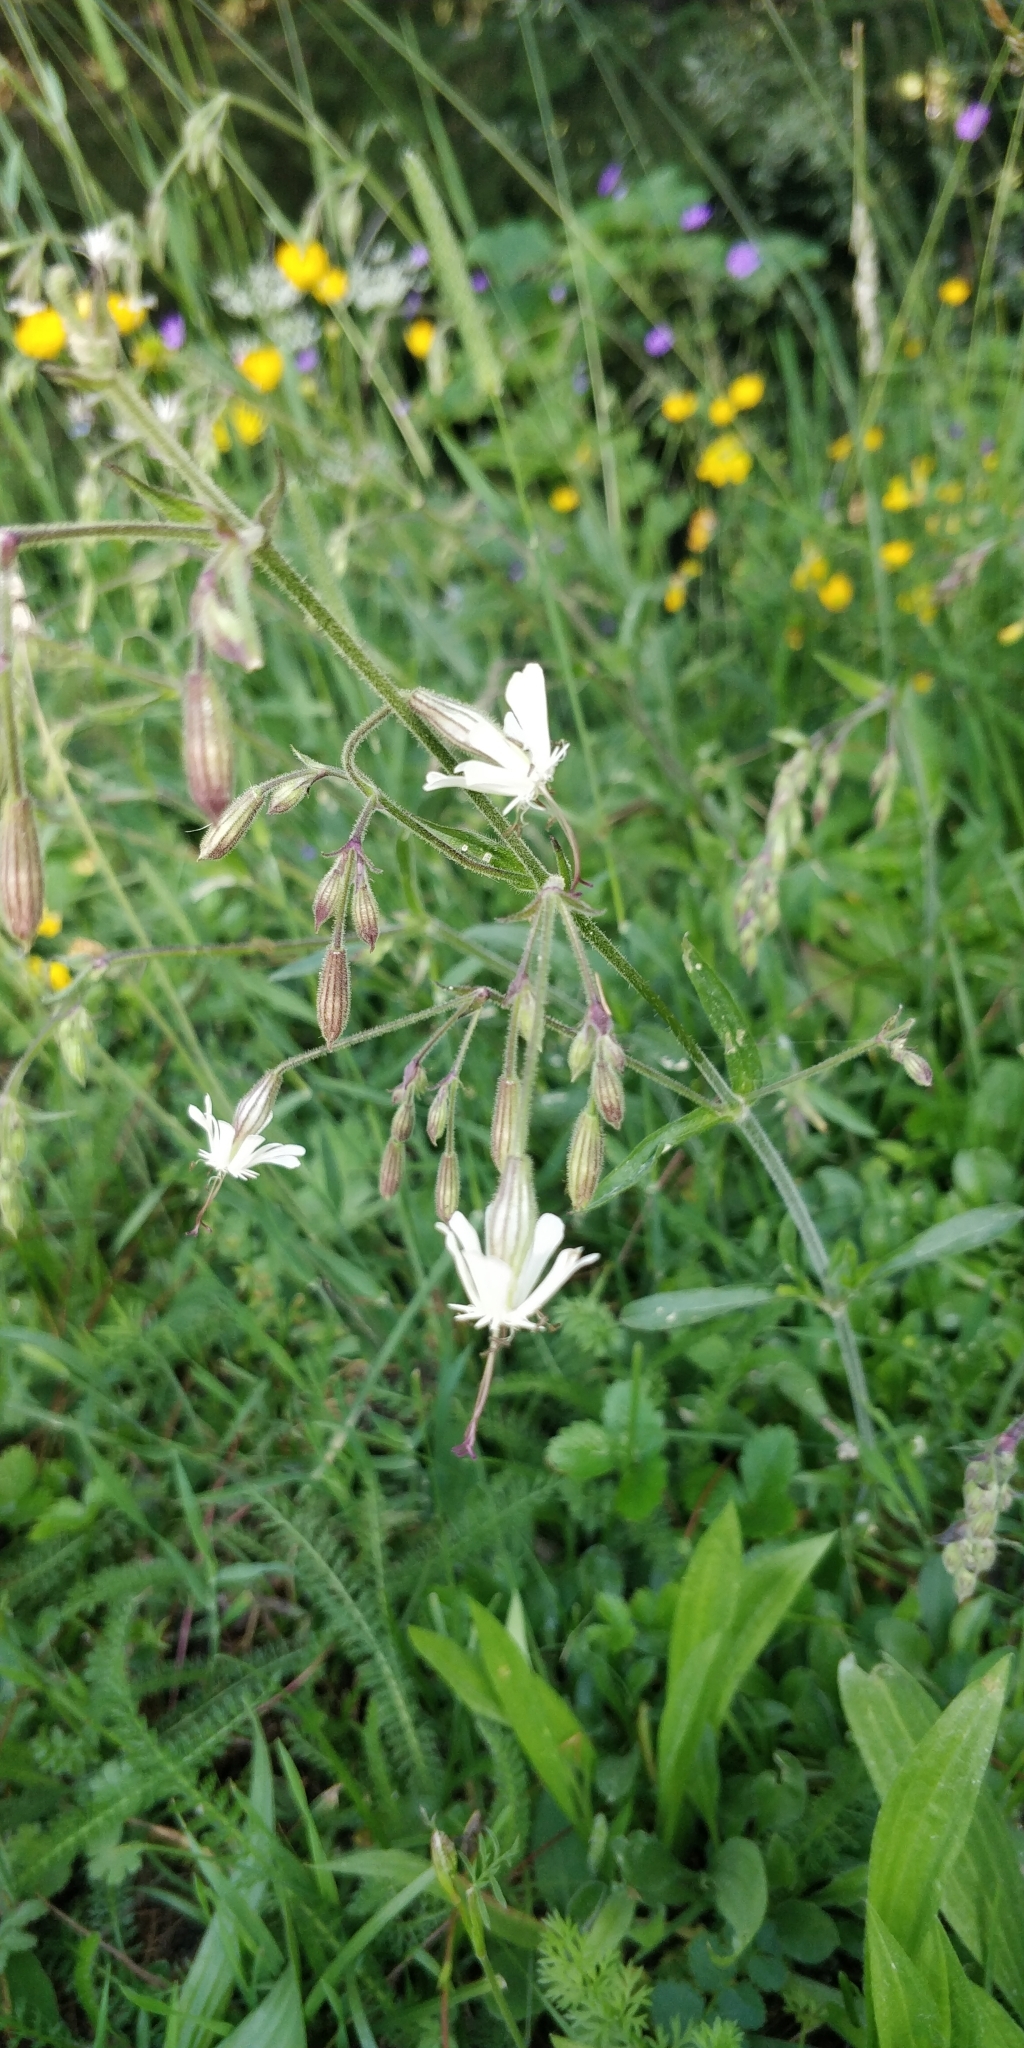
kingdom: Plantae
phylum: Tracheophyta
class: Magnoliopsida
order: Caryophyllales
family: Caryophyllaceae
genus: Silene
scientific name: Silene nutans
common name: Nottingham catchfly
